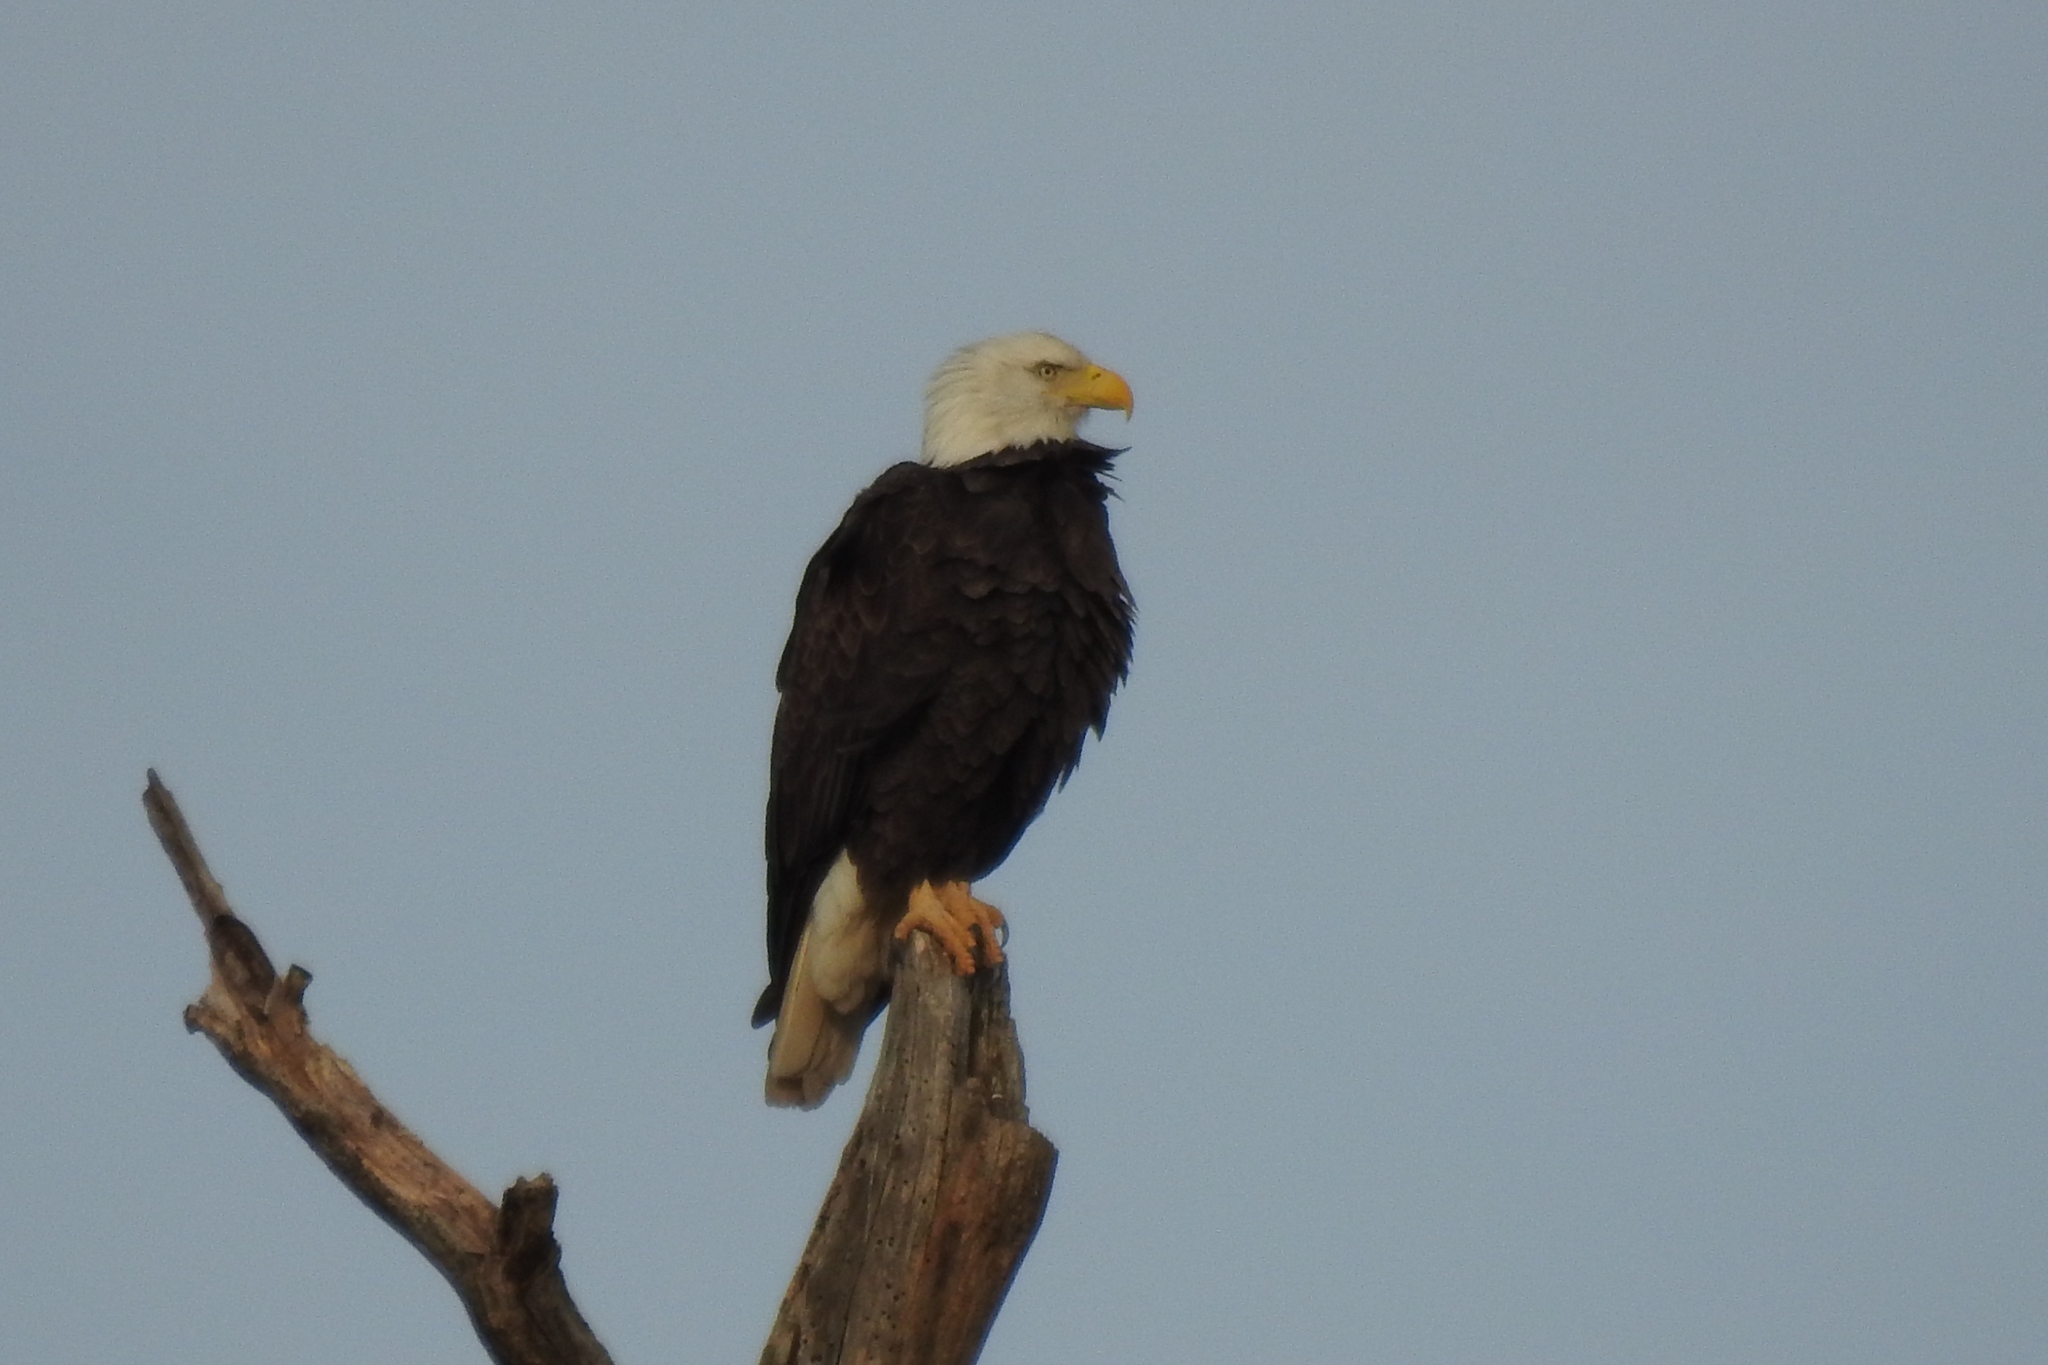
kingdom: Animalia
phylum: Chordata
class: Aves
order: Accipitriformes
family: Accipitridae
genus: Haliaeetus
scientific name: Haliaeetus leucocephalus
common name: Bald eagle
